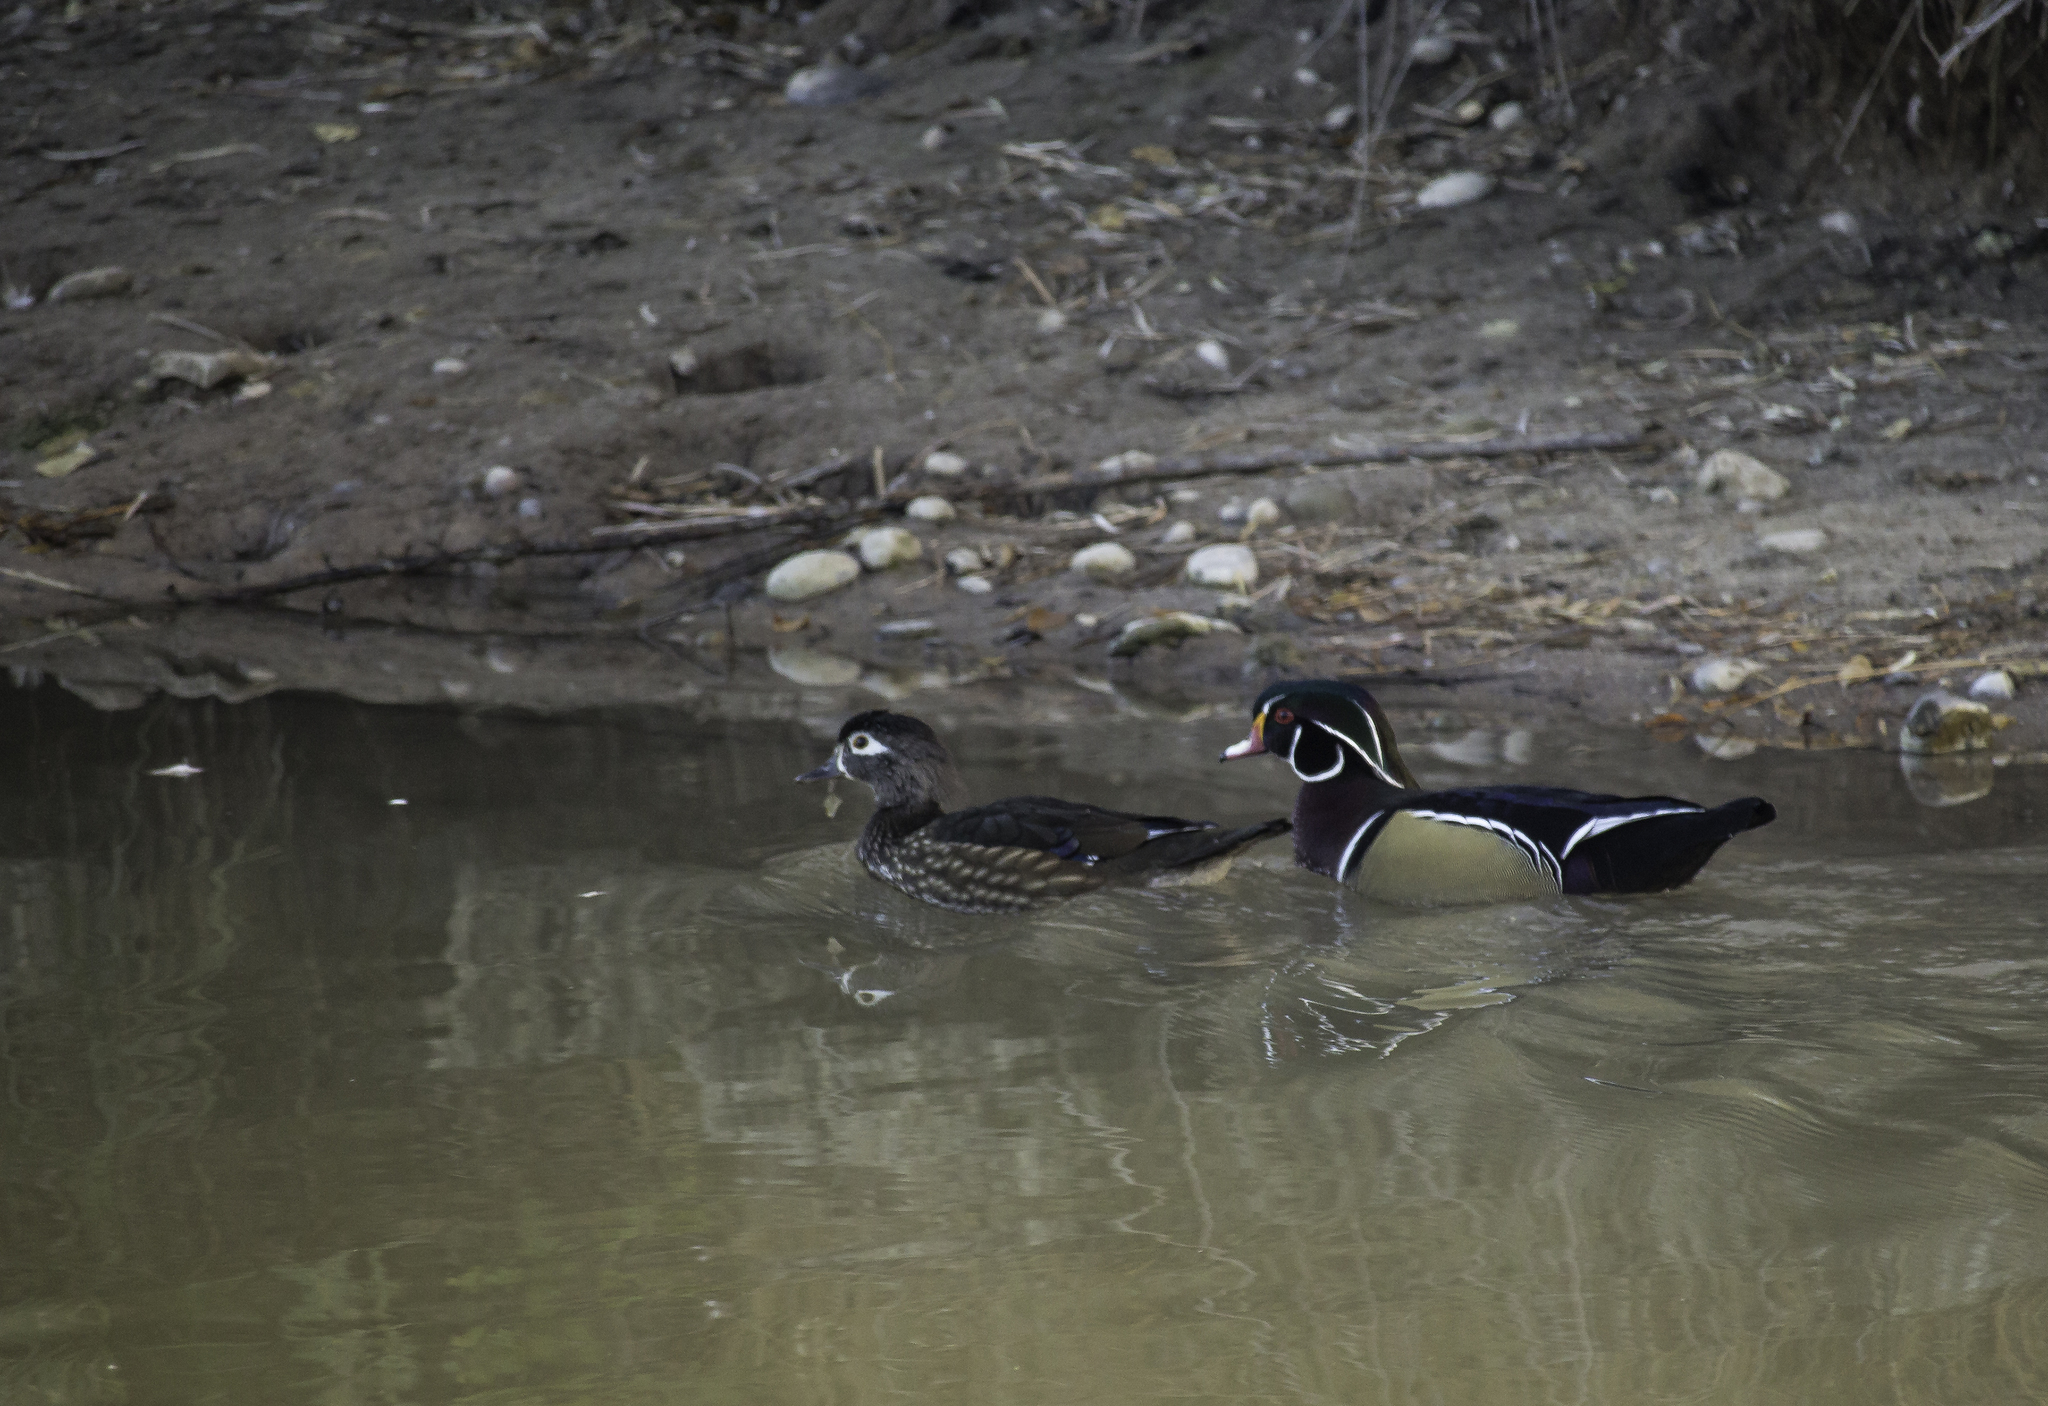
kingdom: Animalia
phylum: Chordata
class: Aves
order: Anseriformes
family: Anatidae
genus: Aix
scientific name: Aix sponsa
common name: Wood duck
